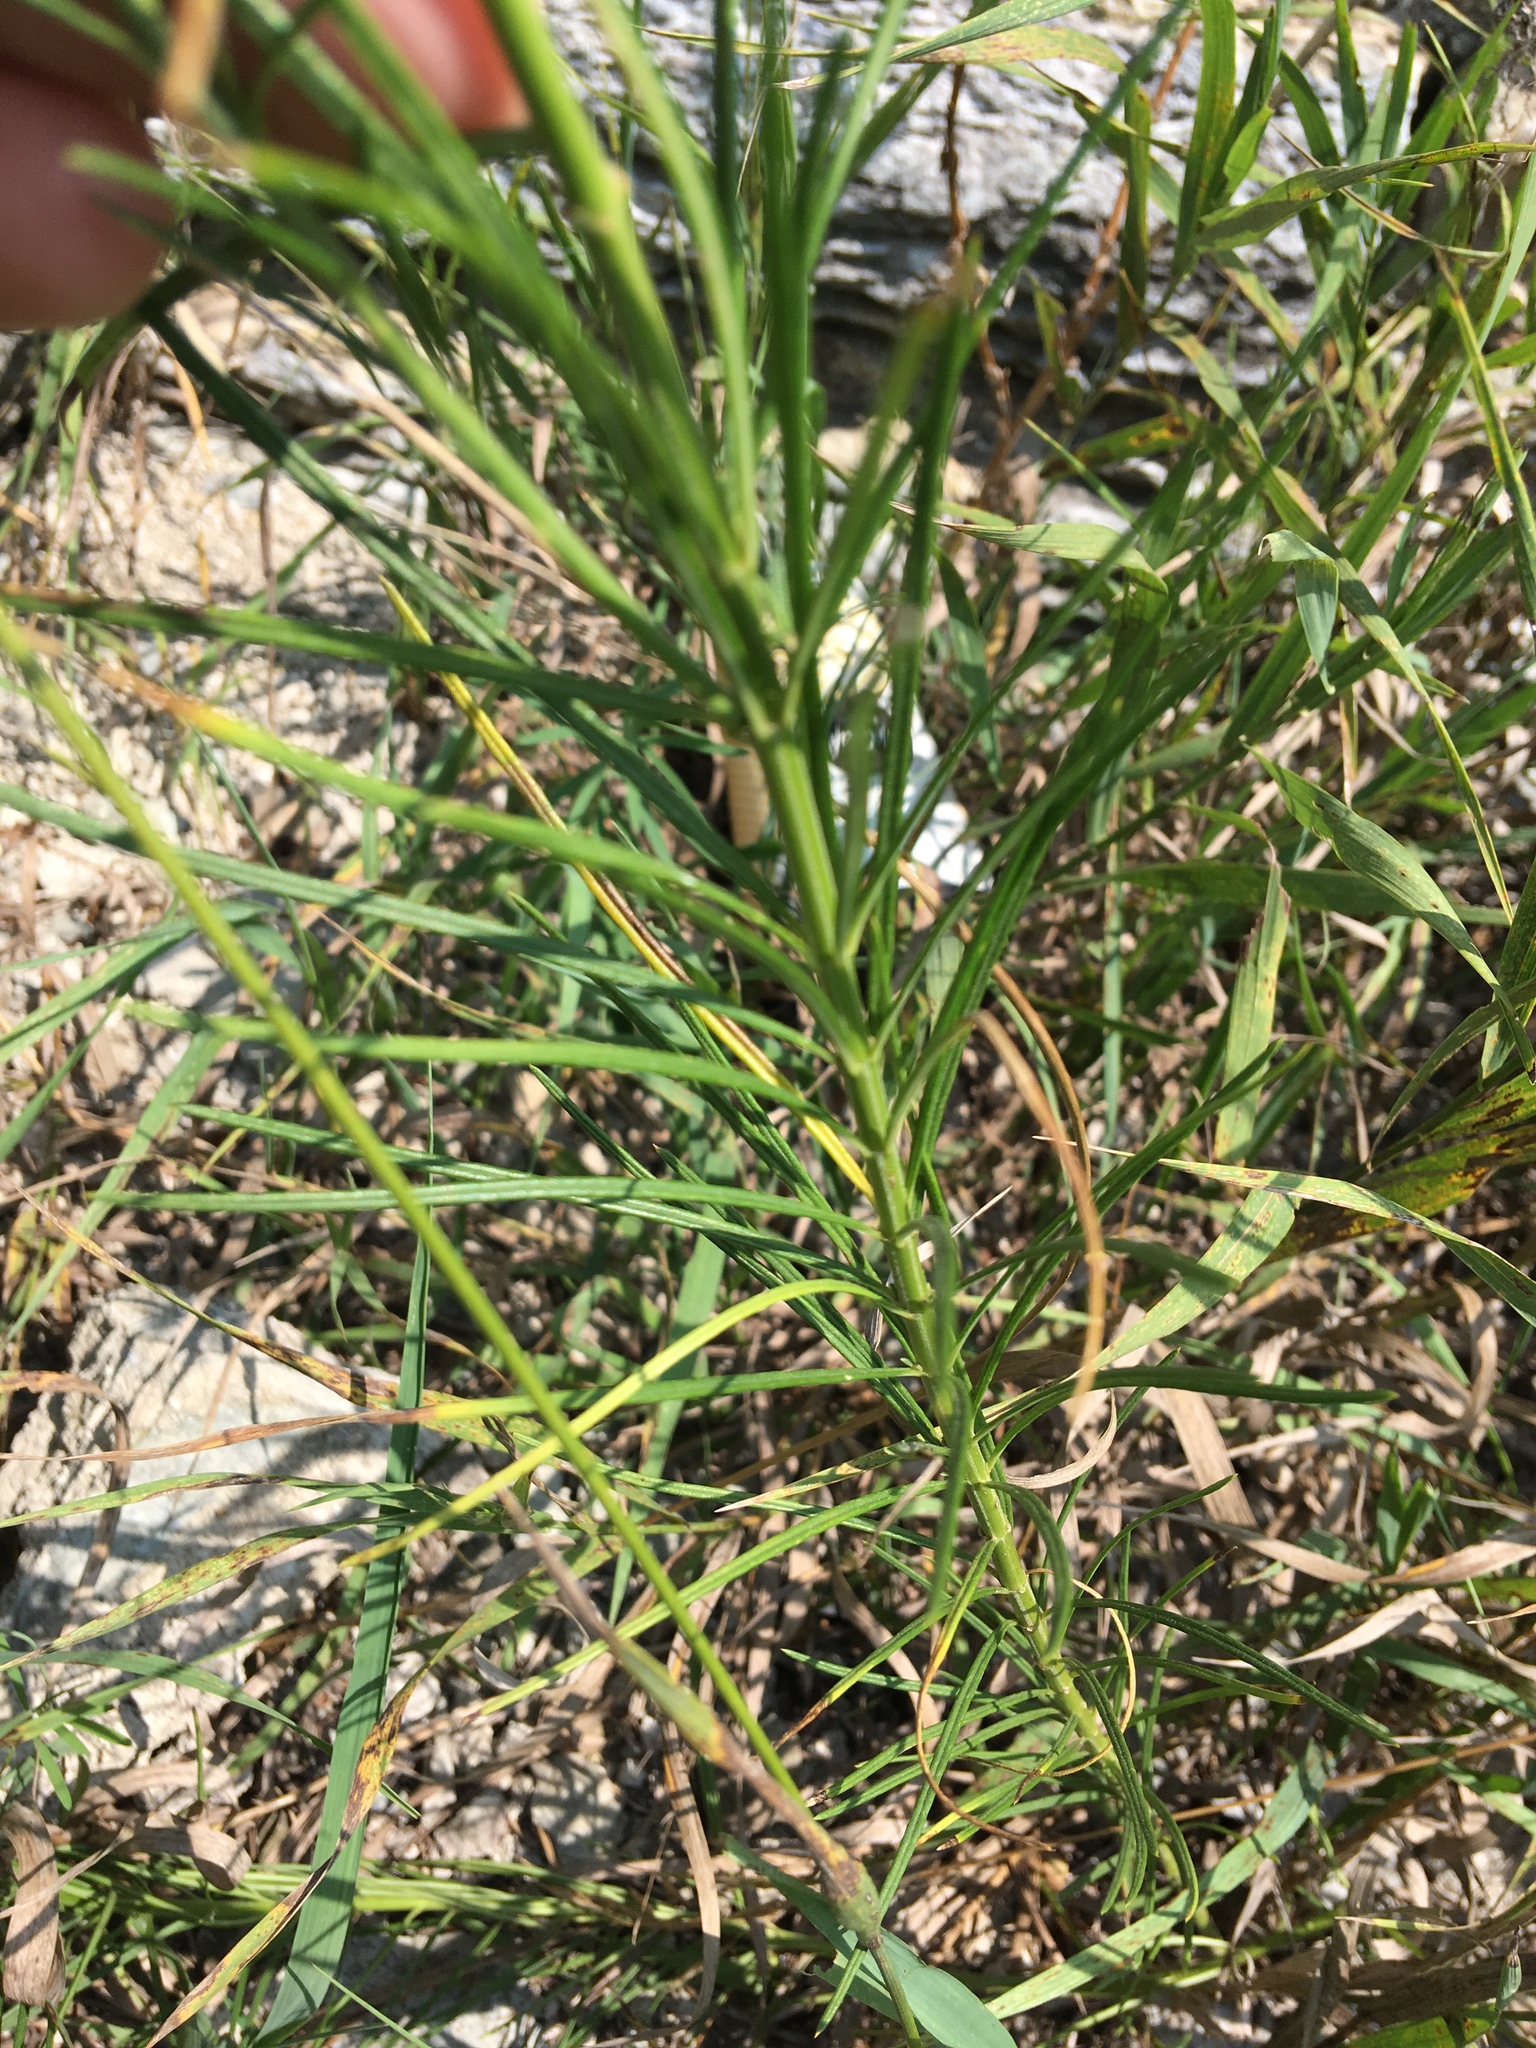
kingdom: Plantae
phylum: Tracheophyta
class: Magnoliopsida
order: Gentianales
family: Apocynaceae
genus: Asclepias
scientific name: Asclepias verticillata
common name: Eastern whorled milkweed
